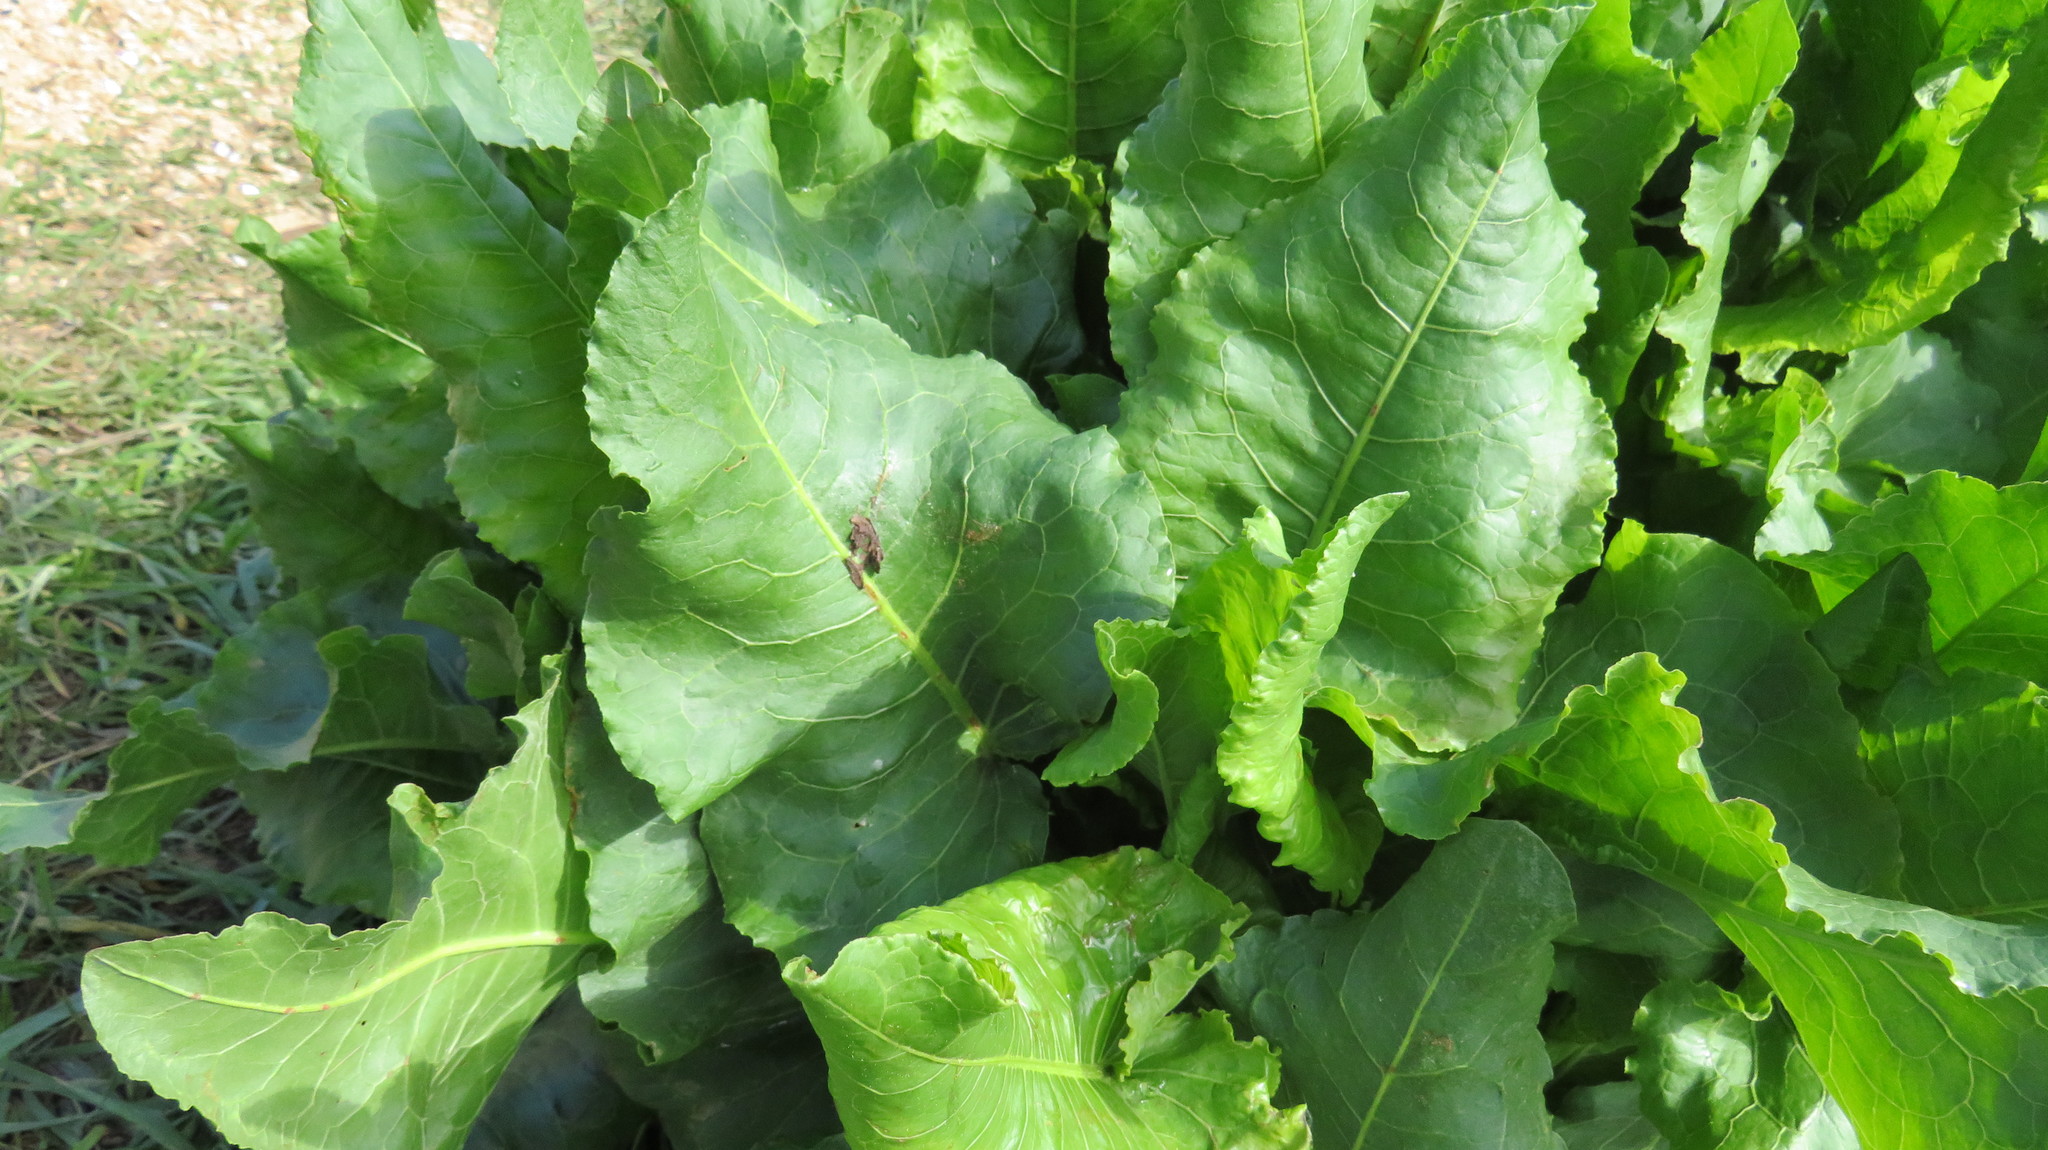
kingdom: Plantae
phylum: Tracheophyta
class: Magnoliopsida
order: Caryophyllales
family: Polygonaceae
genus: Rumex
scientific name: Rumex confertus
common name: Russian dock
